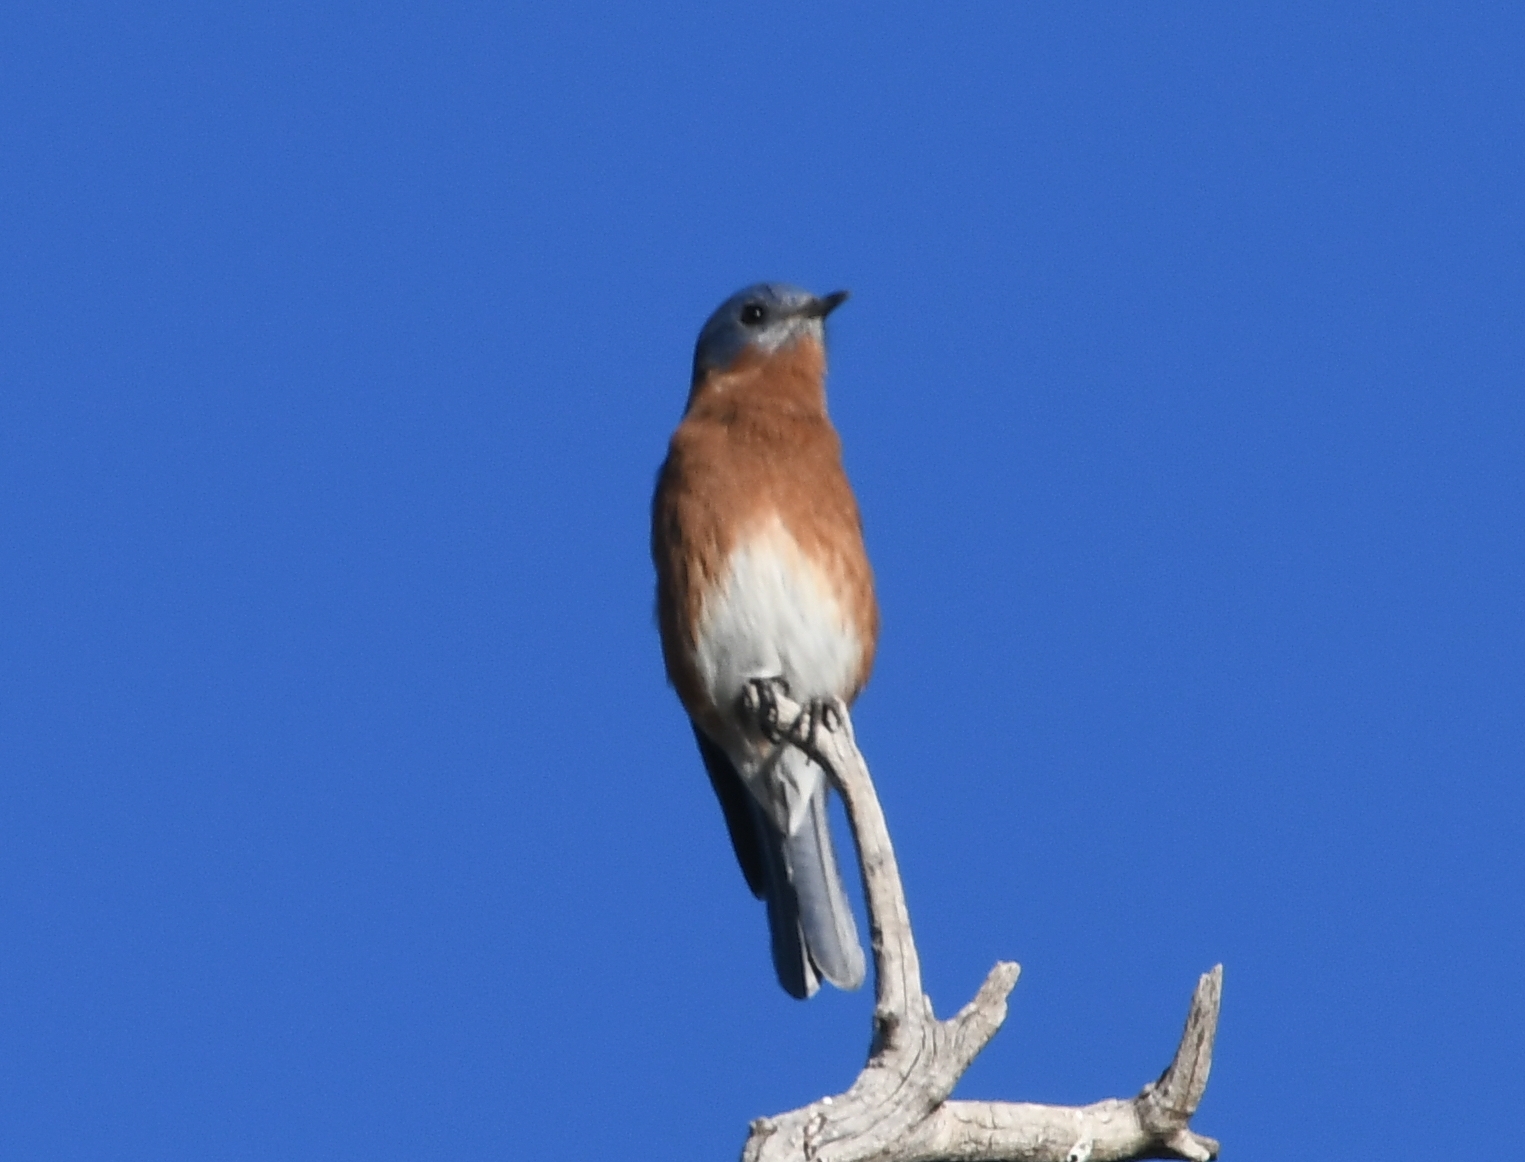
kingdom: Animalia
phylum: Chordata
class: Aves
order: Passeriformes
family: Turdidae
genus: Sialia
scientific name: Sialia sialis
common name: Eastern bluebird
